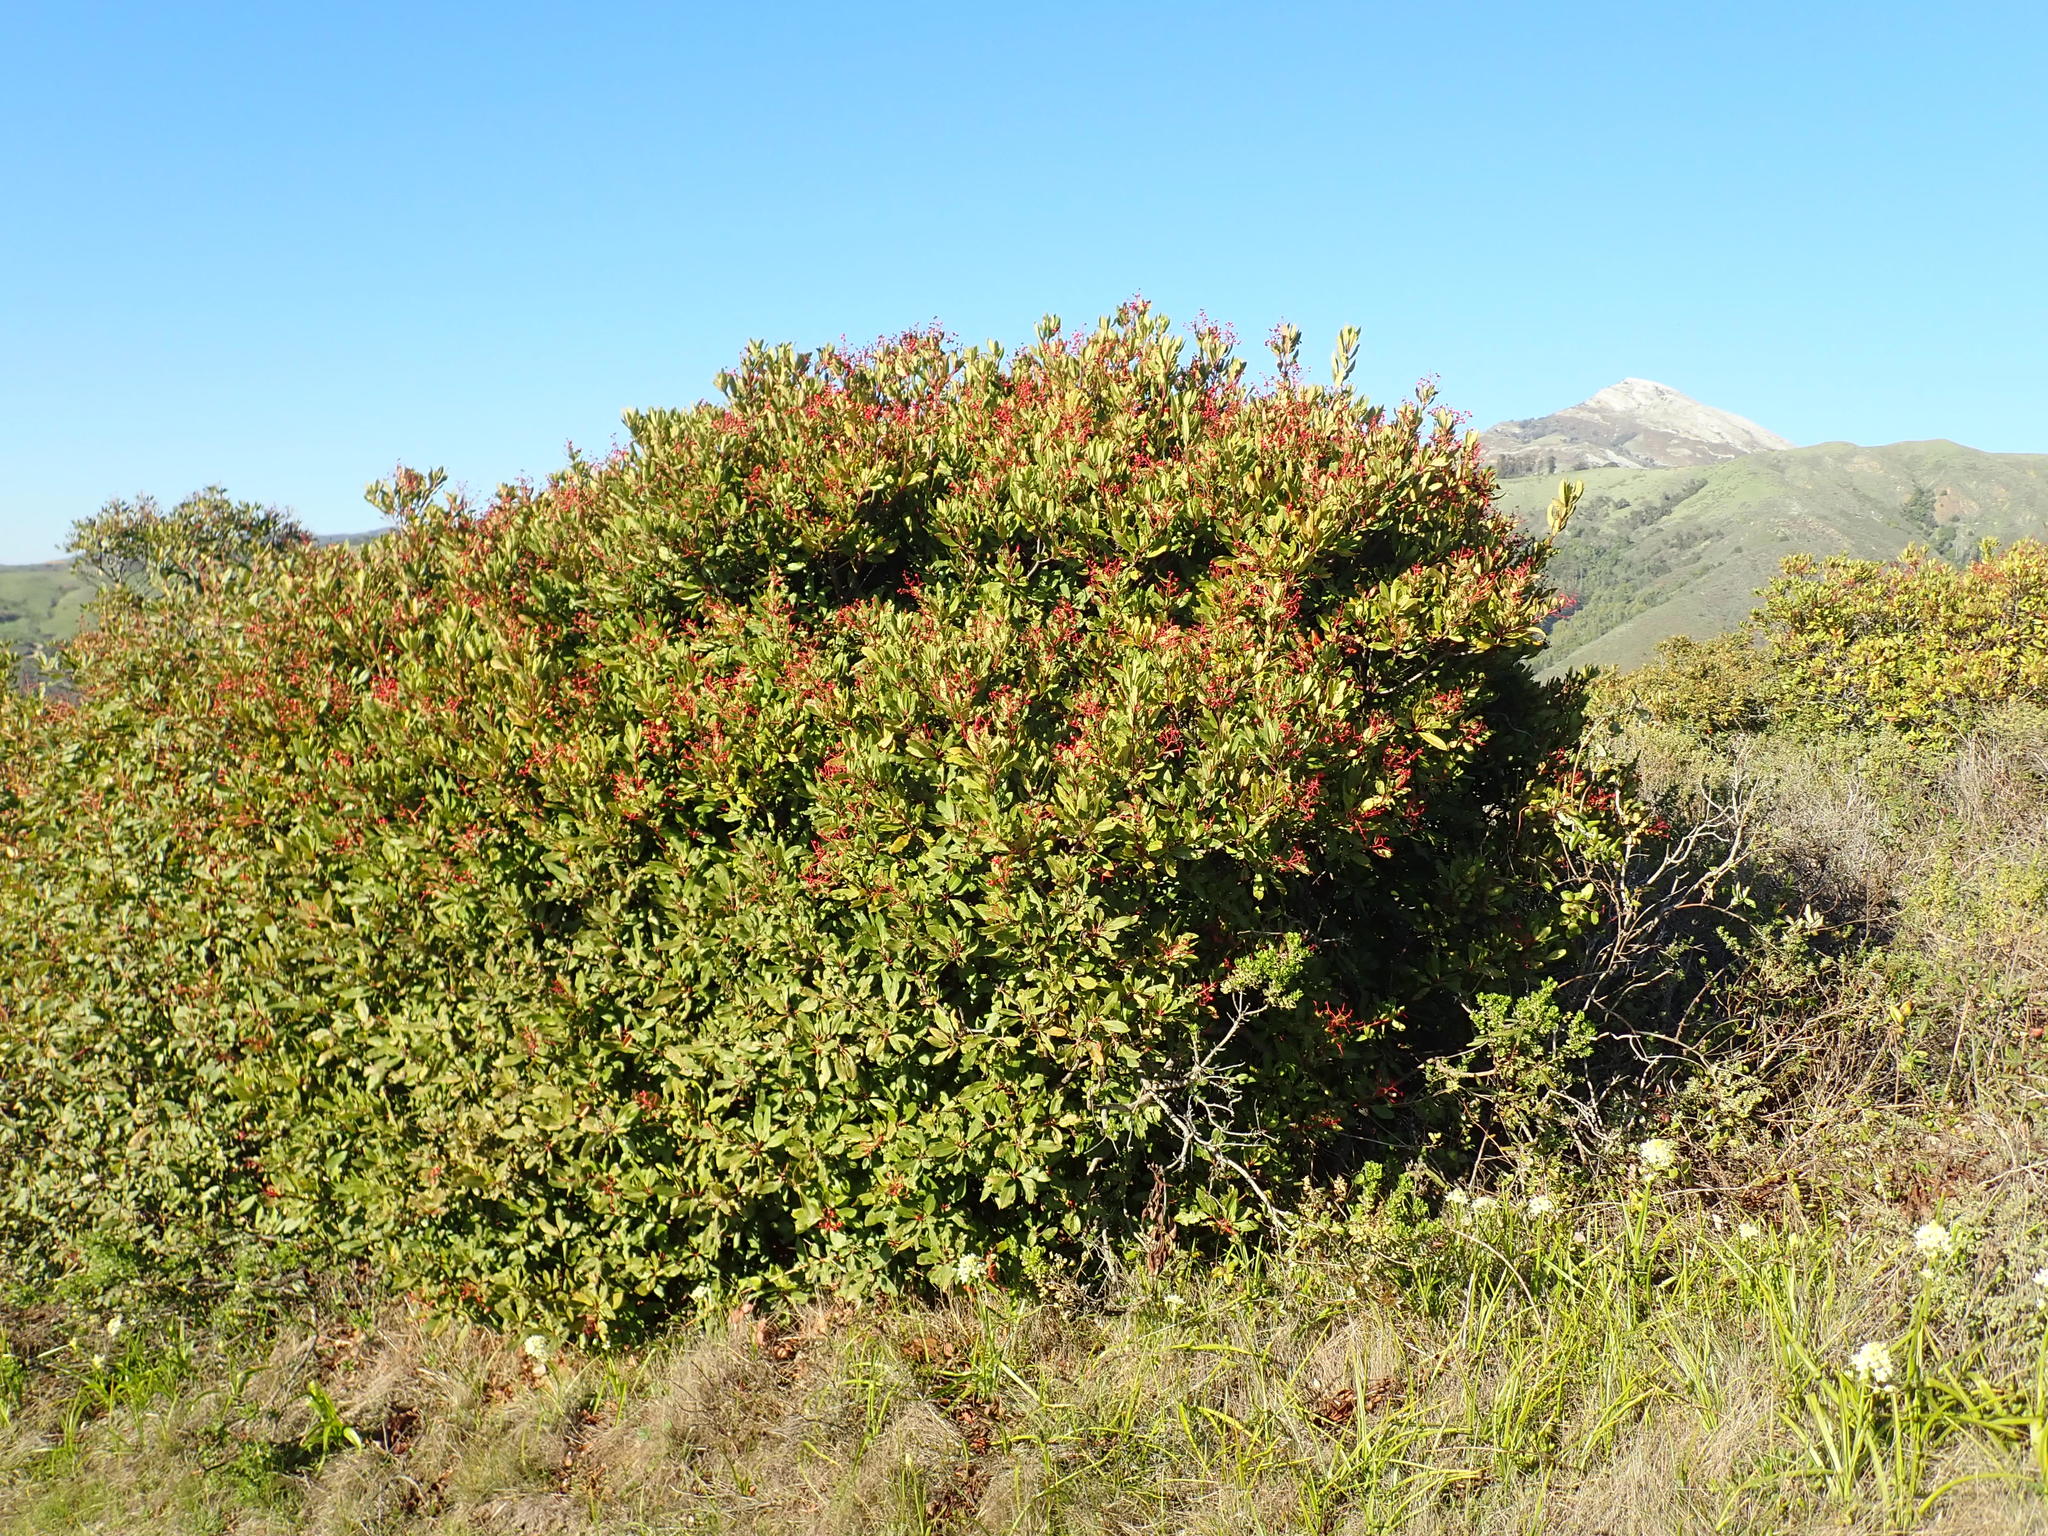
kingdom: Plantae
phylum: Tracheophyta
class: Magnoliopsida
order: Rosales
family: Rosaceae
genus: Heteromeles
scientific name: Heteromeles arbutifolia
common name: California-holly
